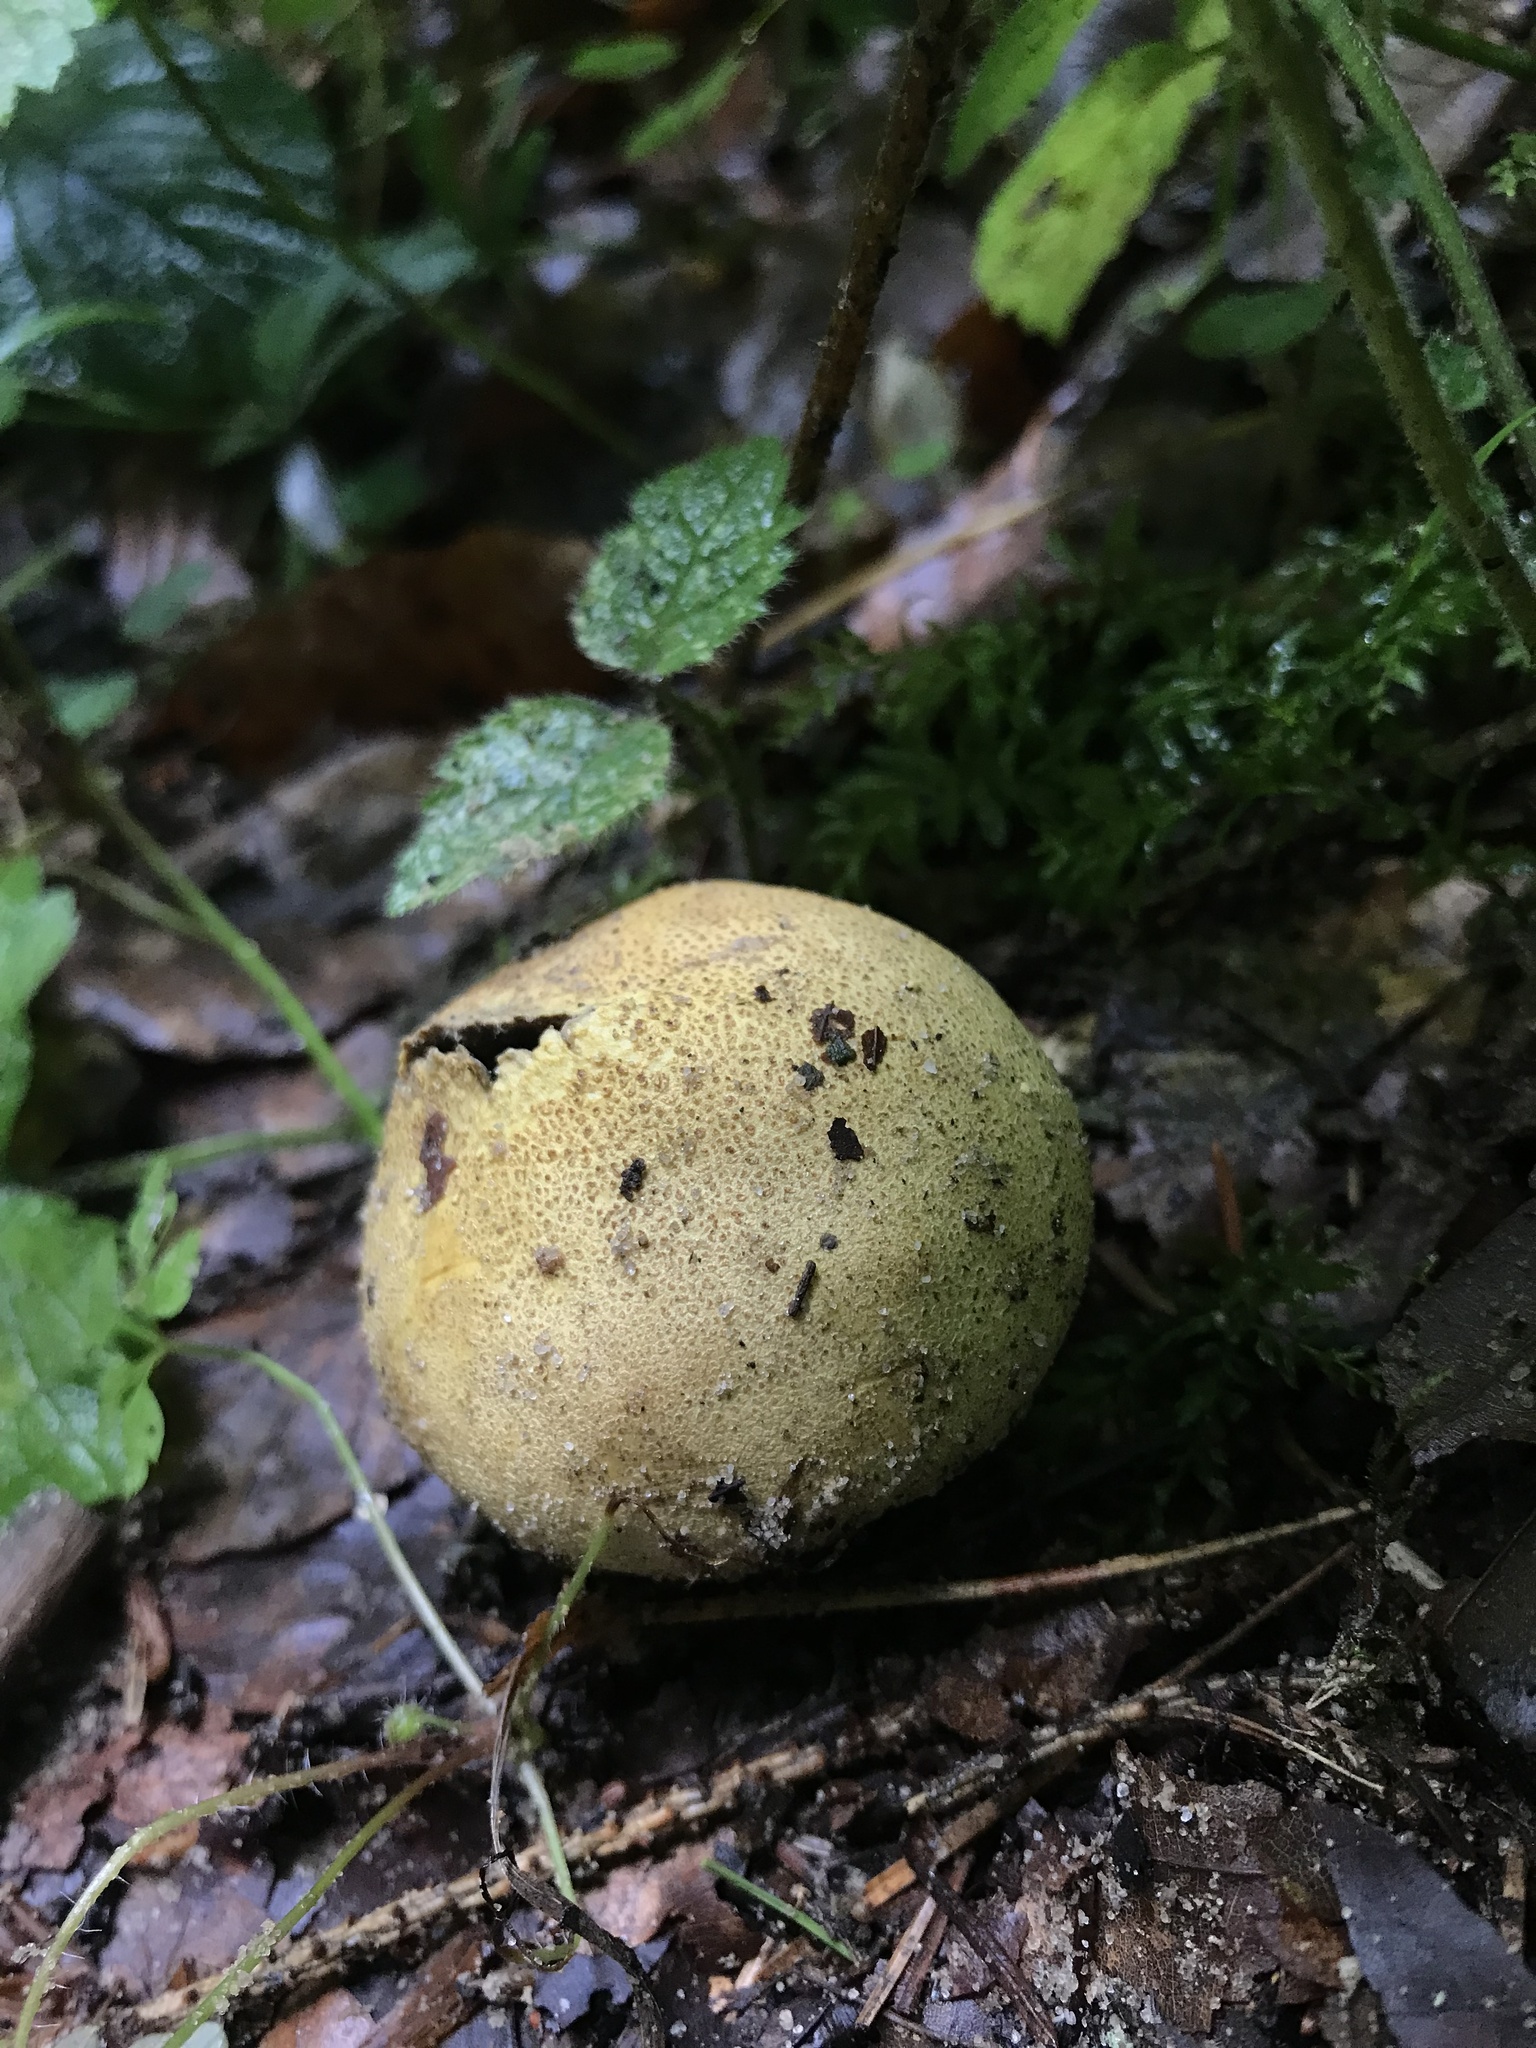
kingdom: Fungi
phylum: Basidiomycota
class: Agaricomycetes
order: Boletales
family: Sclerodermataceae
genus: Scleroderma
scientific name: Scleroderma citrinum
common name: Common earthball
